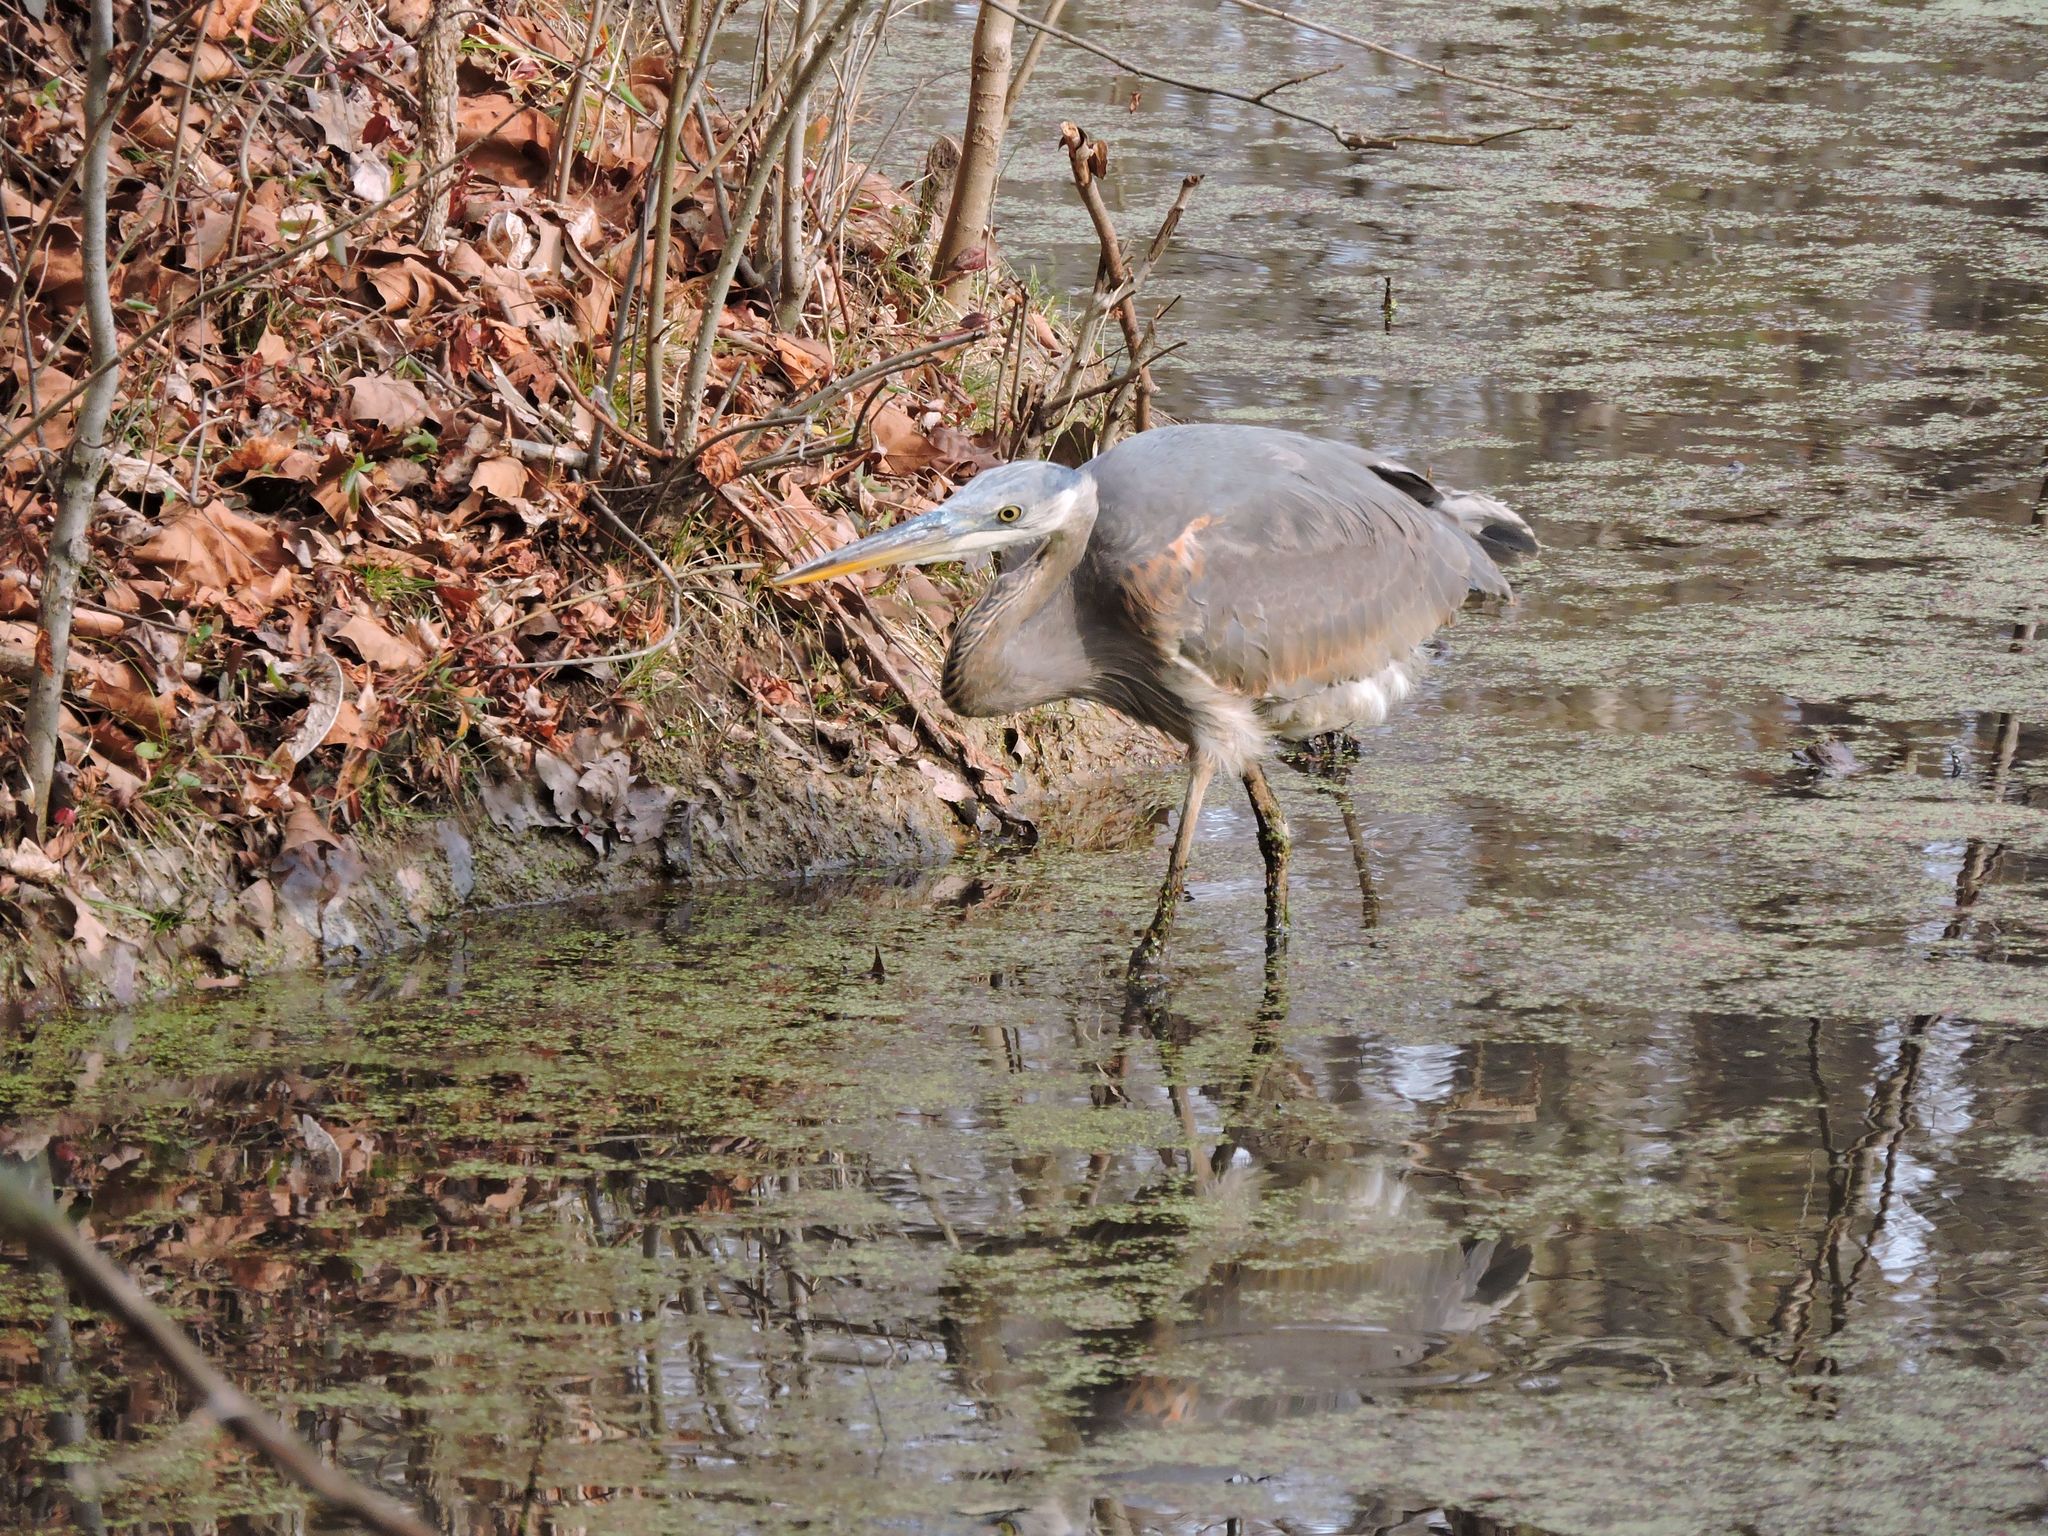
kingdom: Animalia
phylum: Chordata
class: Aves
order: Pelecaniformes
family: Ardeidae
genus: Ardea
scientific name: Ardea herodias
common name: Great blue heron
